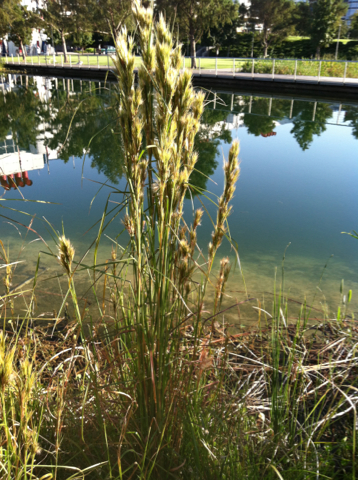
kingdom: Plantae
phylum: Tracheophyta
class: Liliopsida
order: Poales
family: Poaceae
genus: Andropogon
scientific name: Andropogon tenuispatheus
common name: Bushy bluestem
